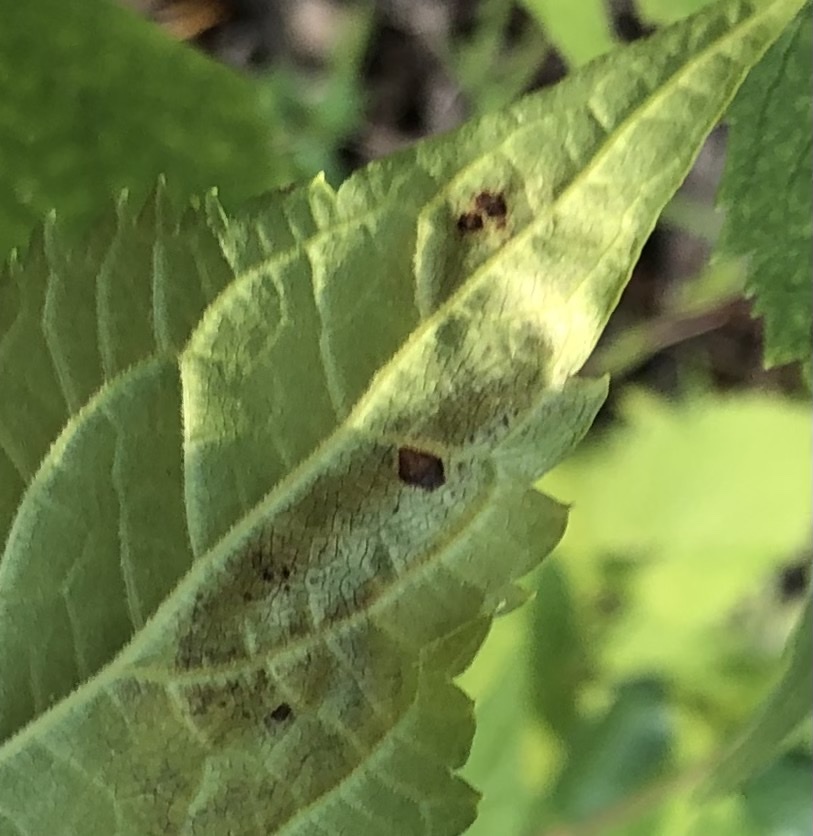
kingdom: Animalia
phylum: Arthropoda
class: Insecta
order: Diptera
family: Agromyzidae
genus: Calycomyza
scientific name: Calycomyza eupatoriphaga
